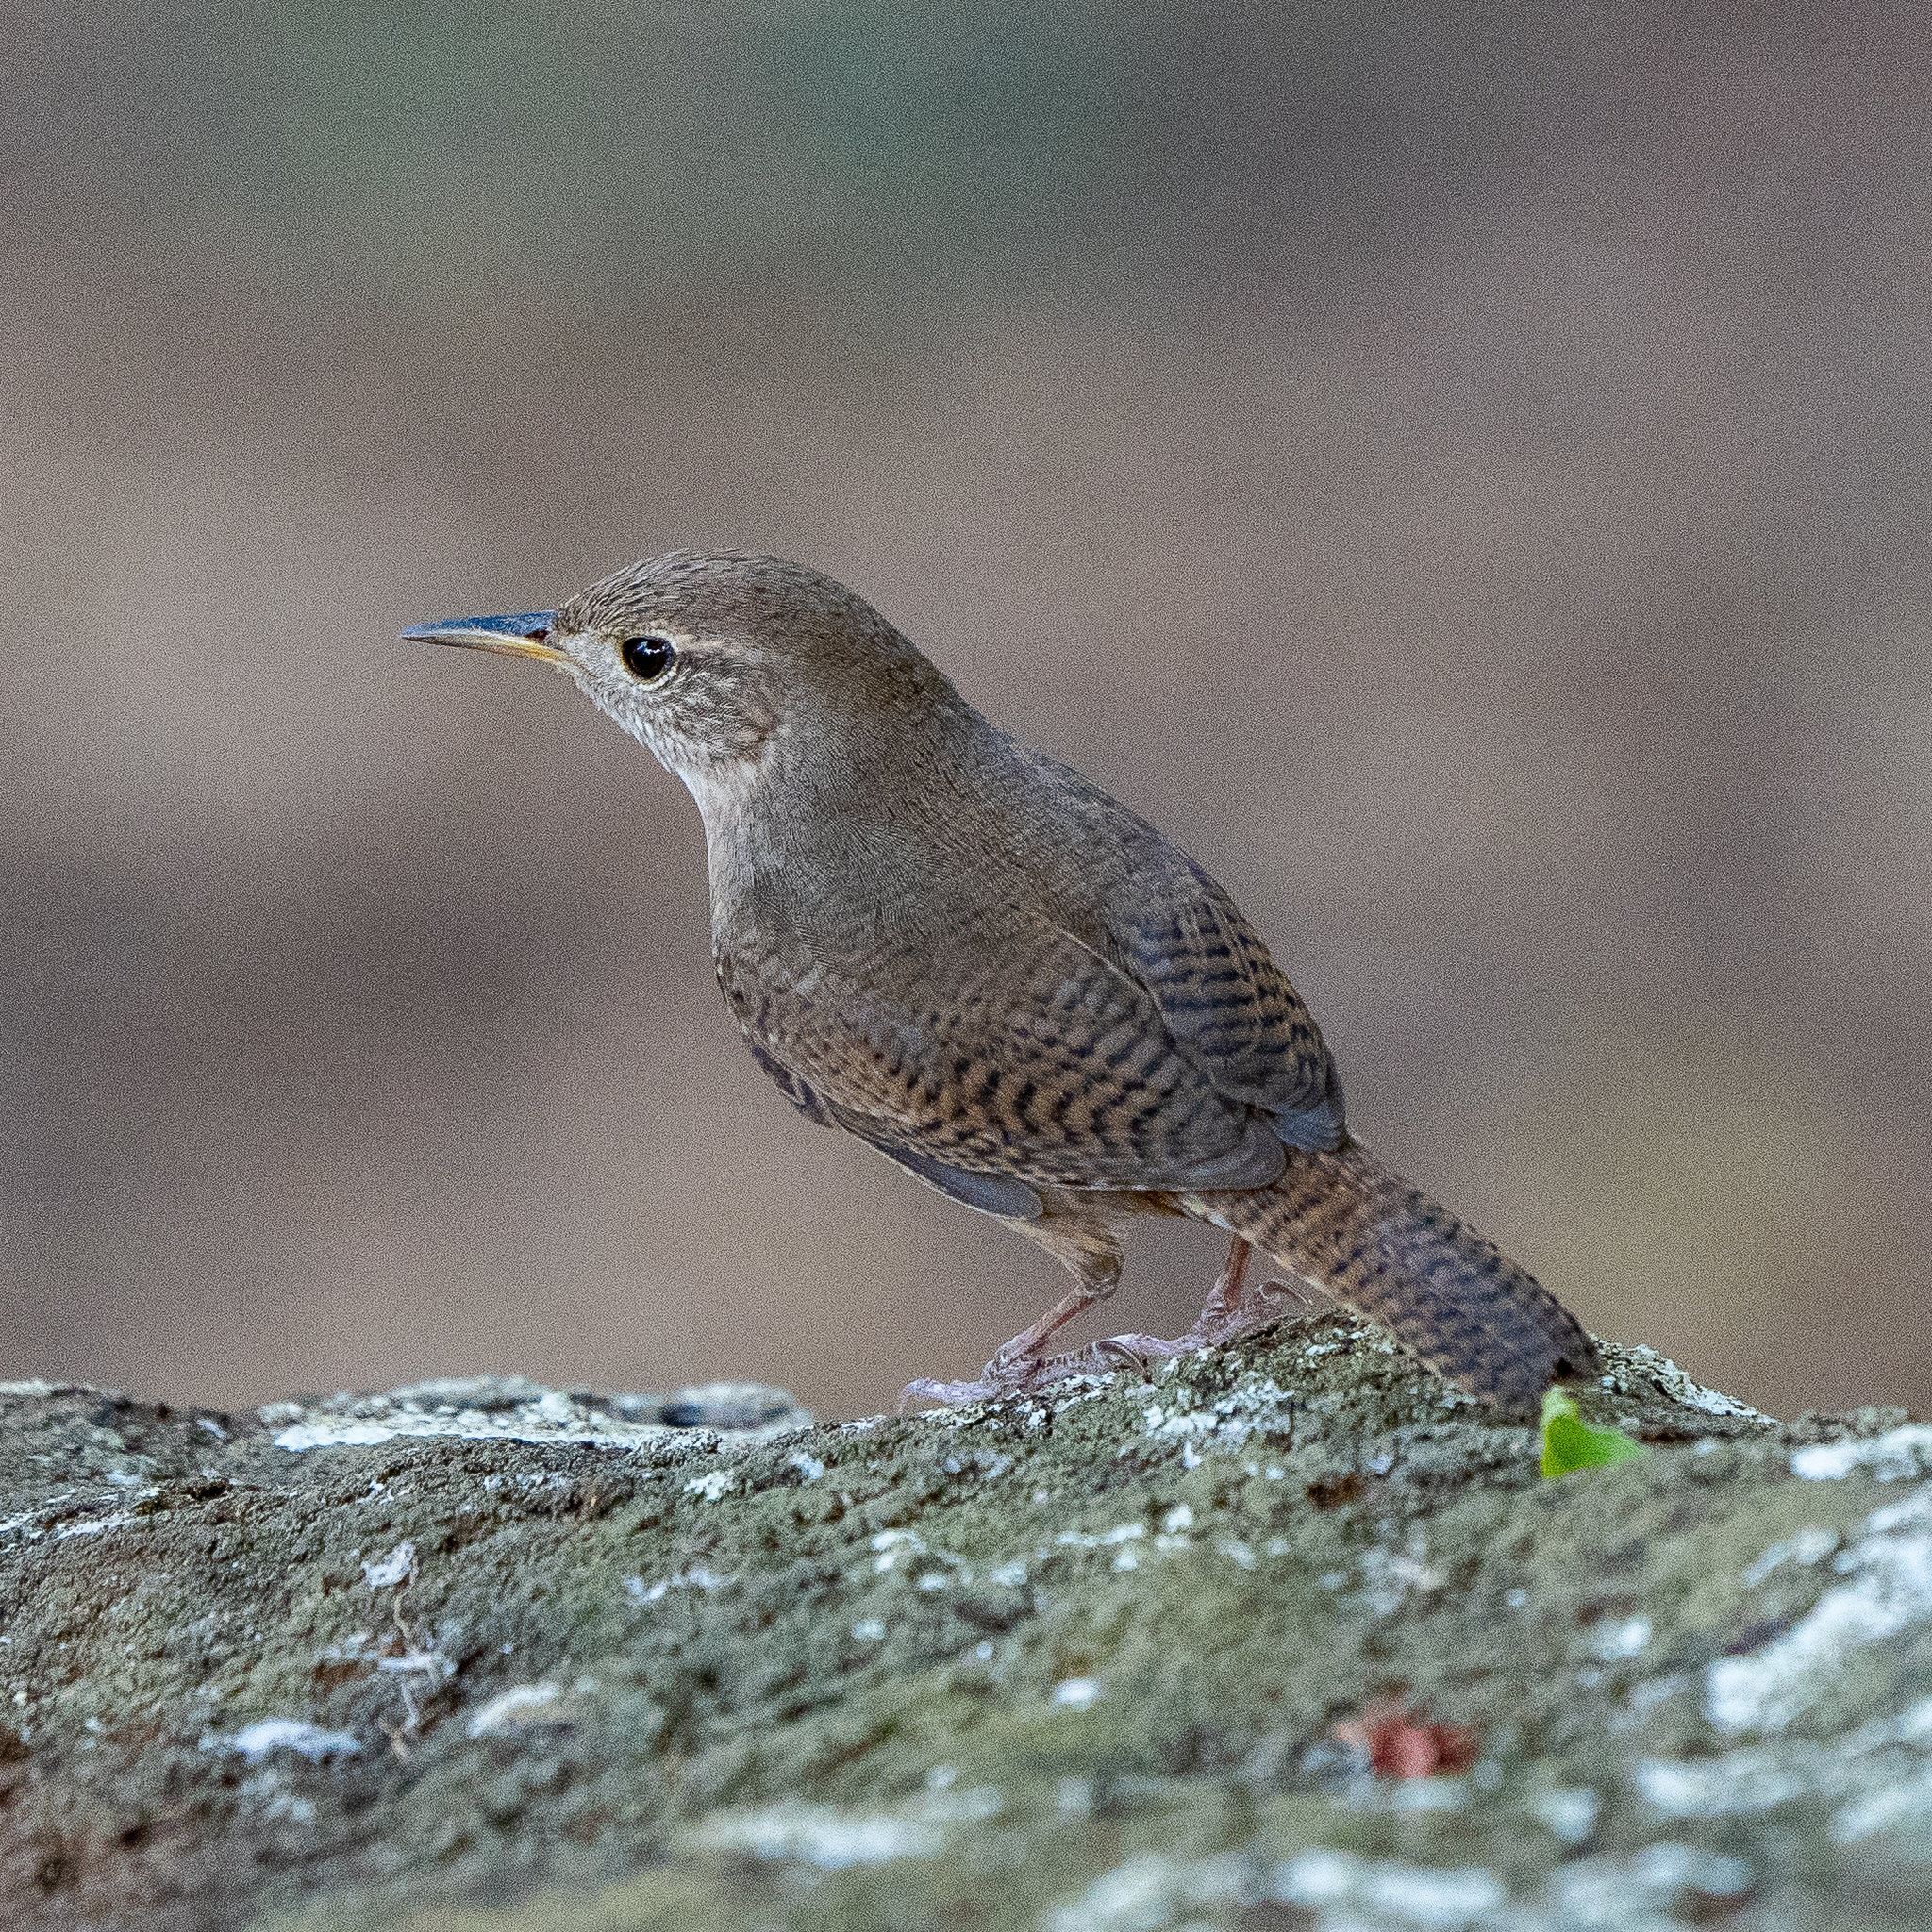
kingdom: Animalia
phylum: Chordata
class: Aves
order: Passeriformes
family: Troglodytidae
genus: Troglodytes
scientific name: Troglodytes aedon
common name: House wren
